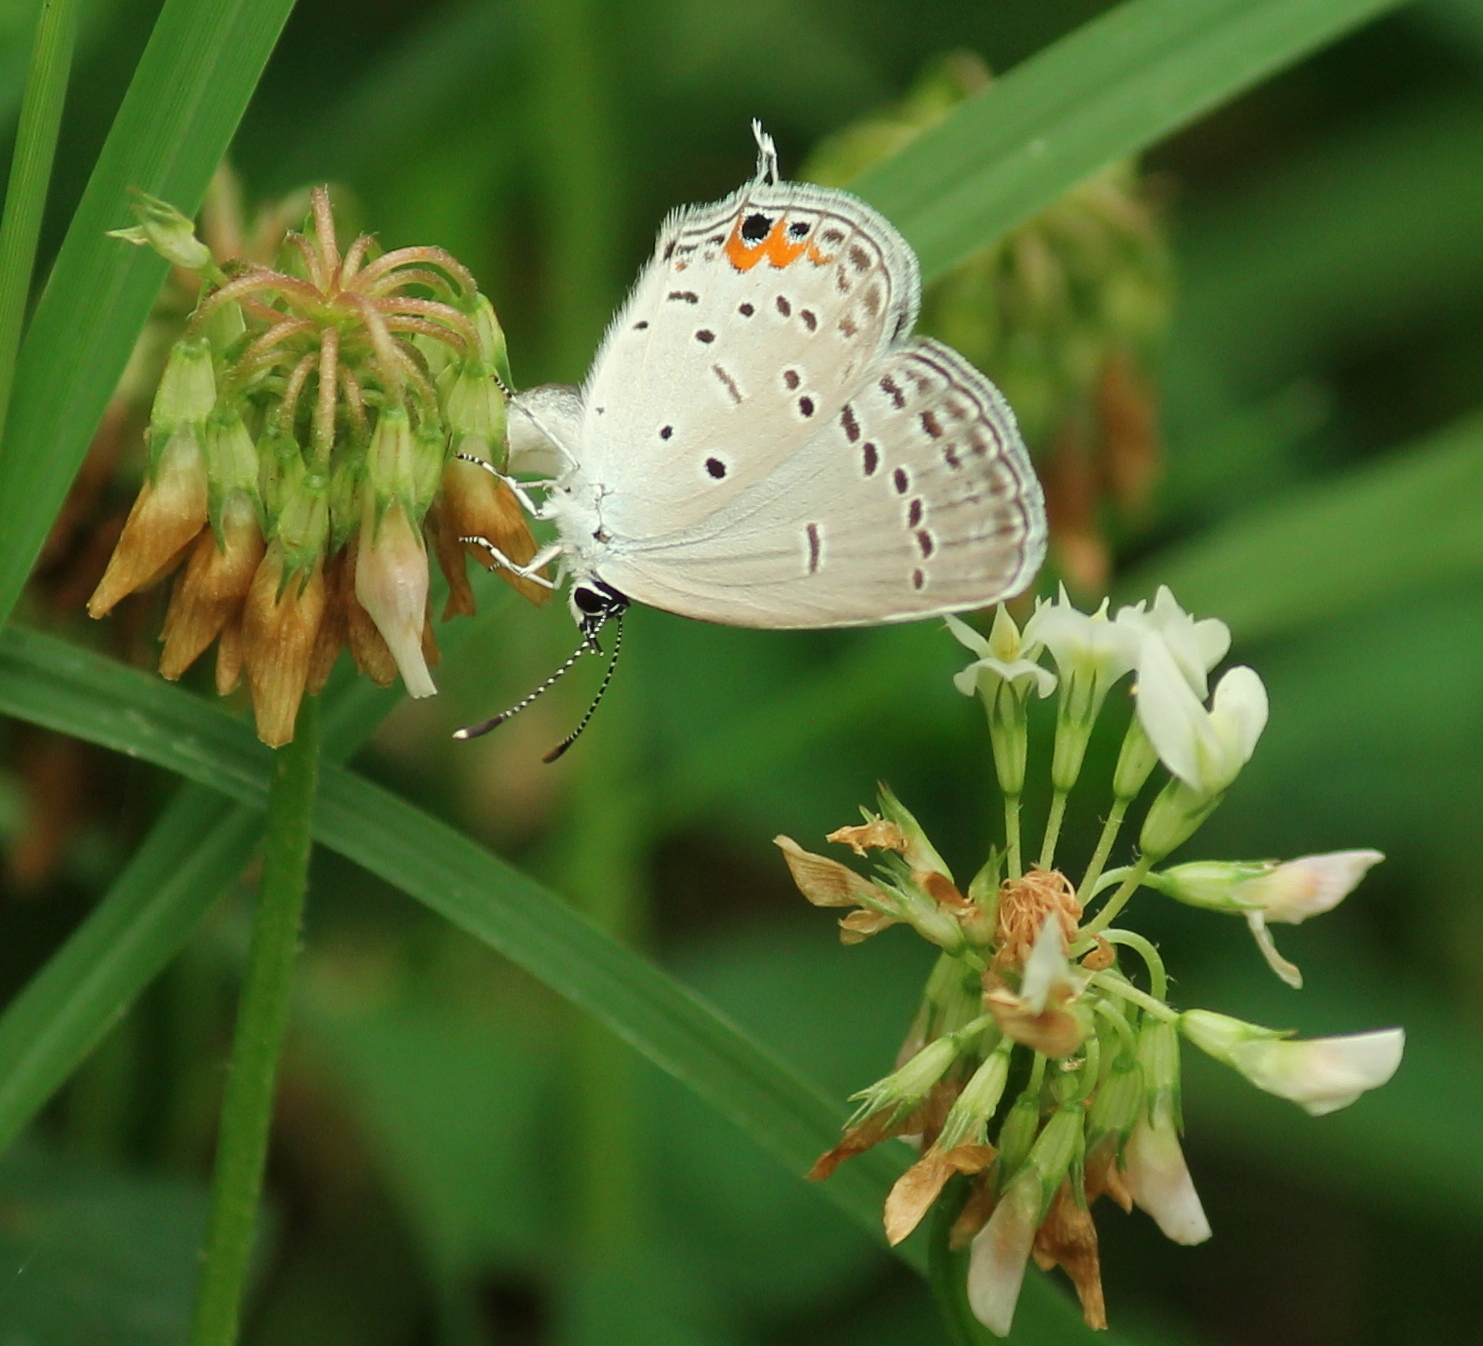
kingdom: Animalia
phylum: Arthropoda
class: Insecta
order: Lepidoptera
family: Lycaenidae
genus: Elkalyce
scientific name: Elkalyce comyntas
